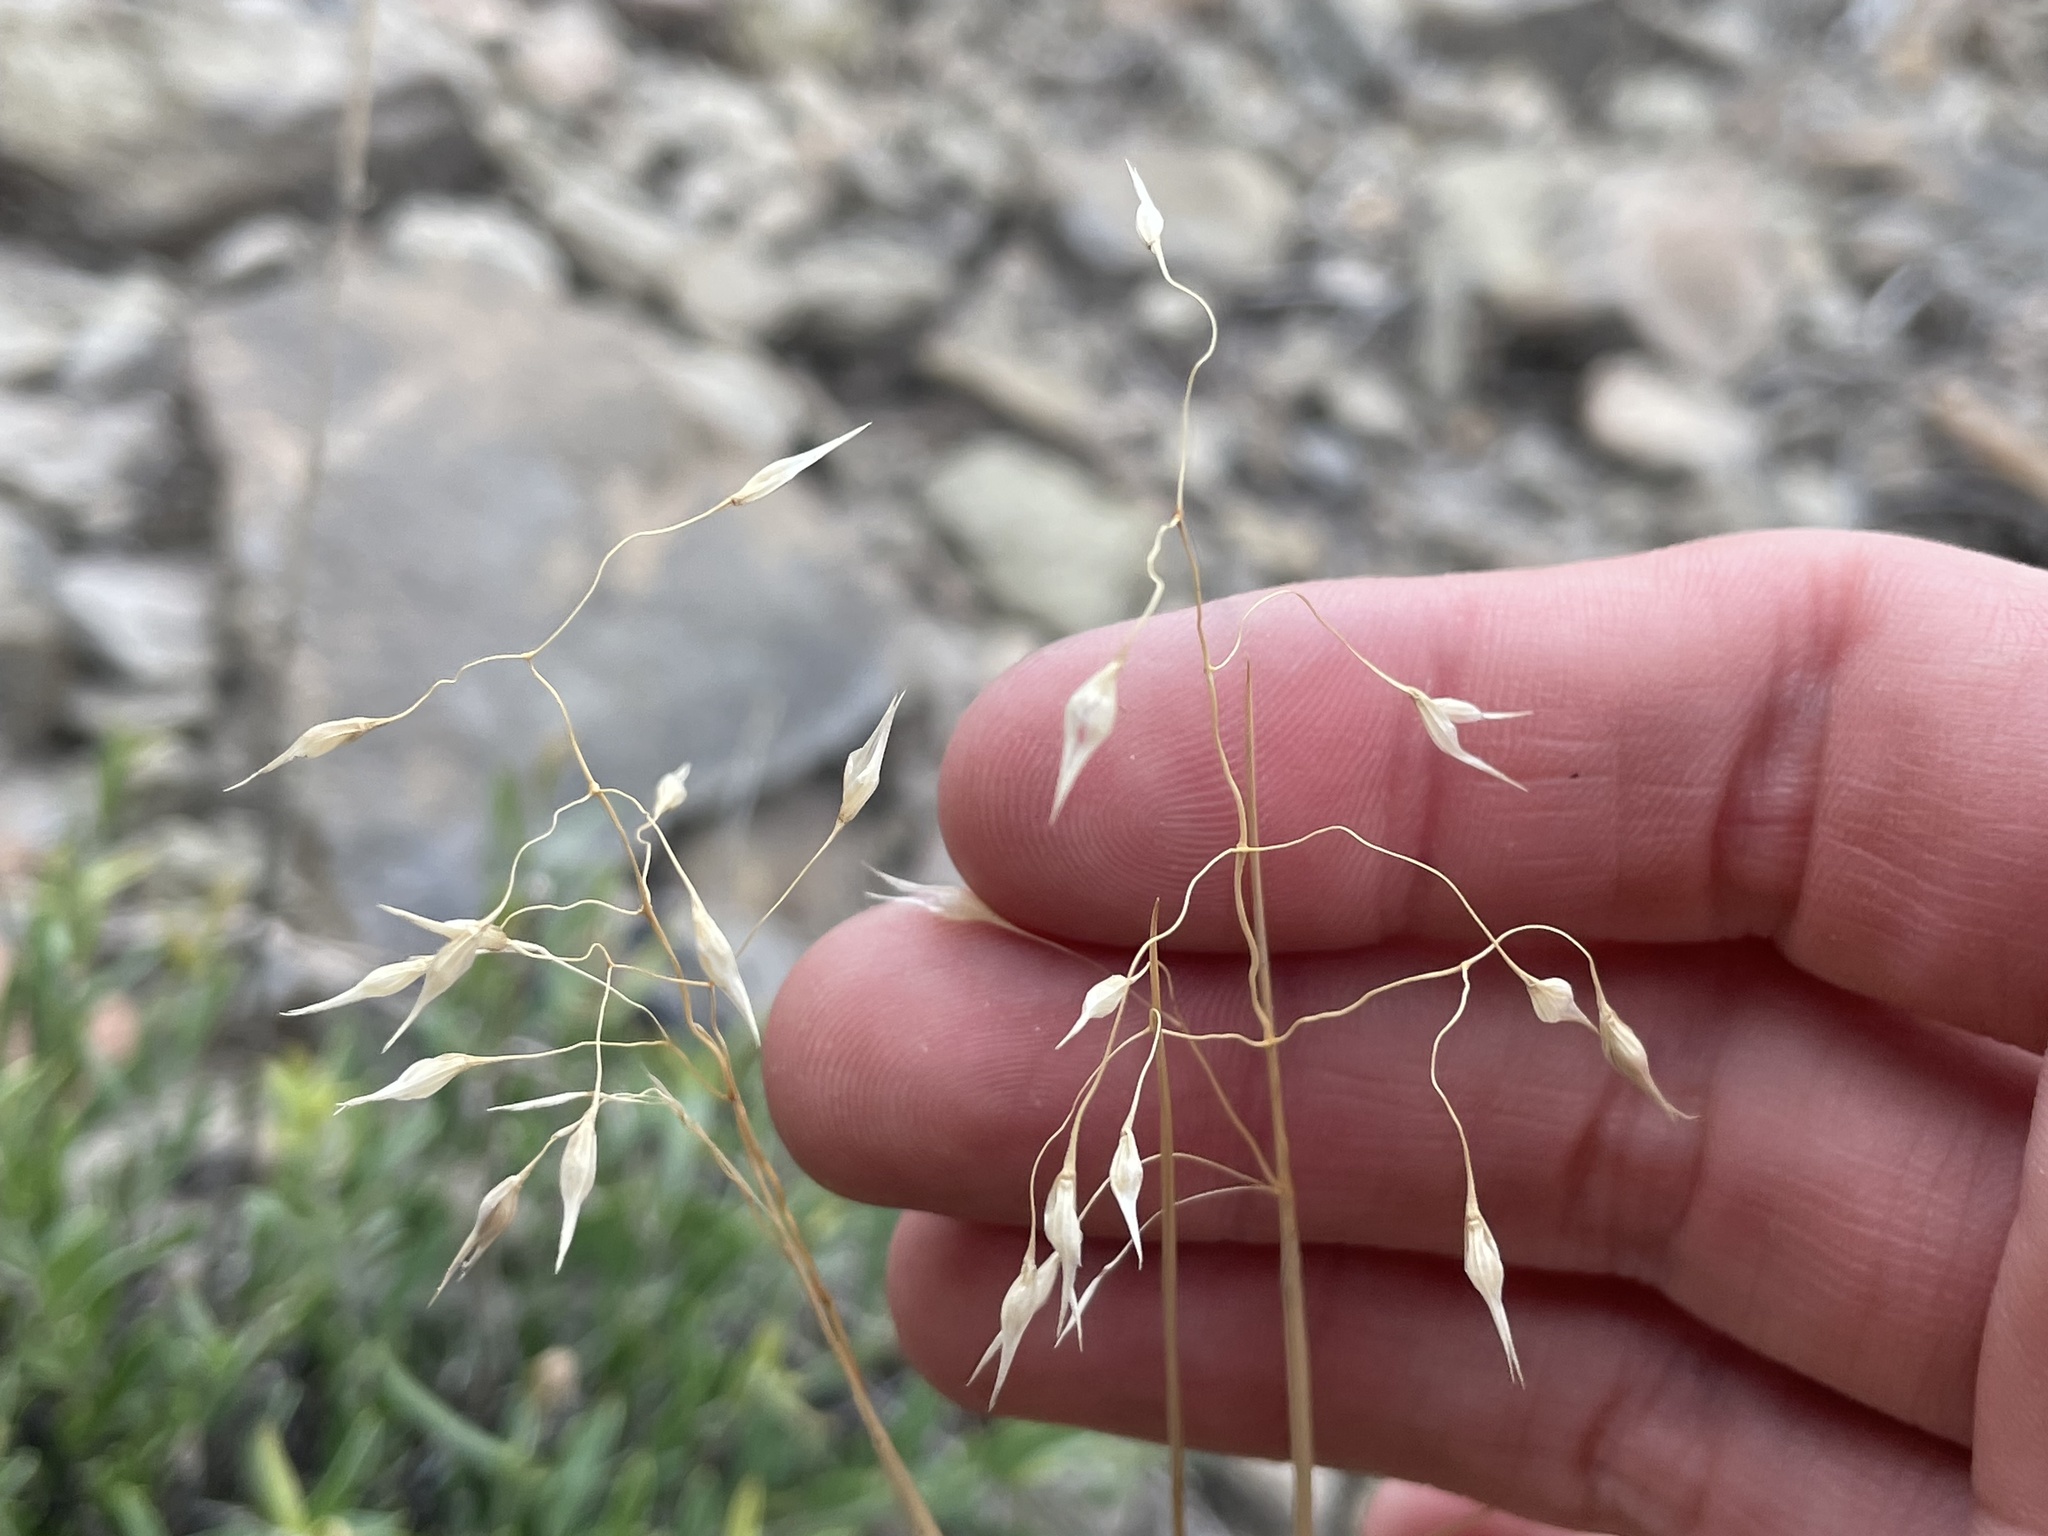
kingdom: Plantae
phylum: Tracheophyta
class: Liliopsida
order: Poales
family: Poaceae
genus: Eriocoma
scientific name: Eriocoma hymenoides
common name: Indian mountain ricegrass
